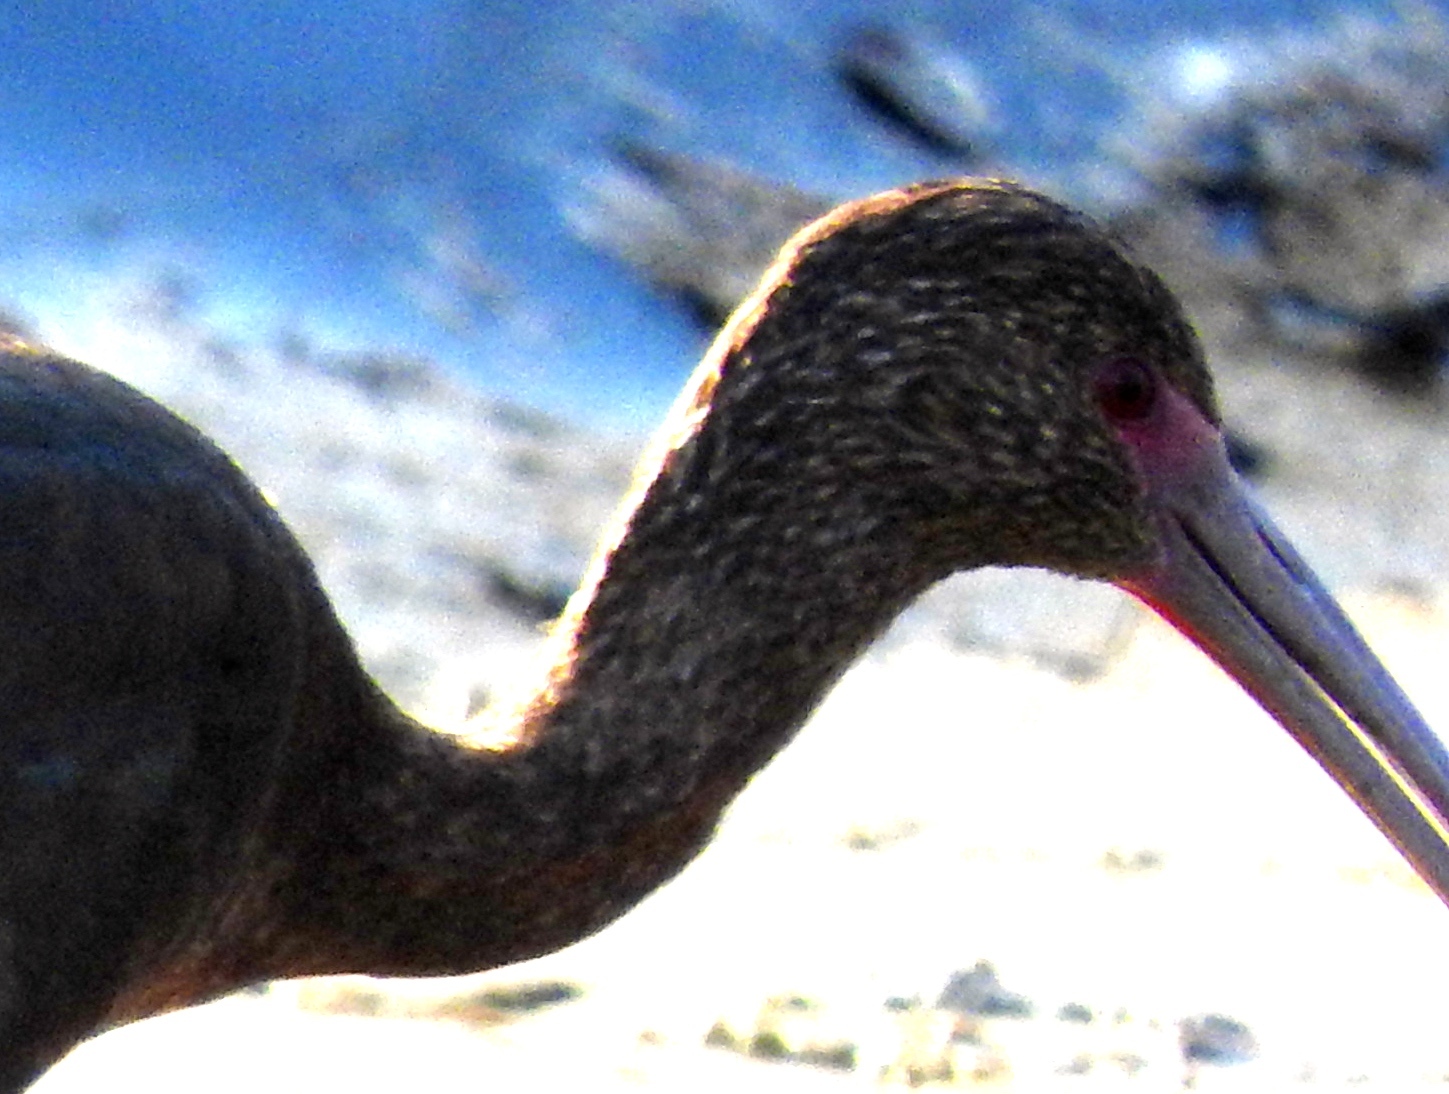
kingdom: Animalia
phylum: Chordata
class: Aves
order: Pelecaniformes
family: Threskiornithidae
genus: Plegadis
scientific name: Plegadis chihi
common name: White-faced ibis
